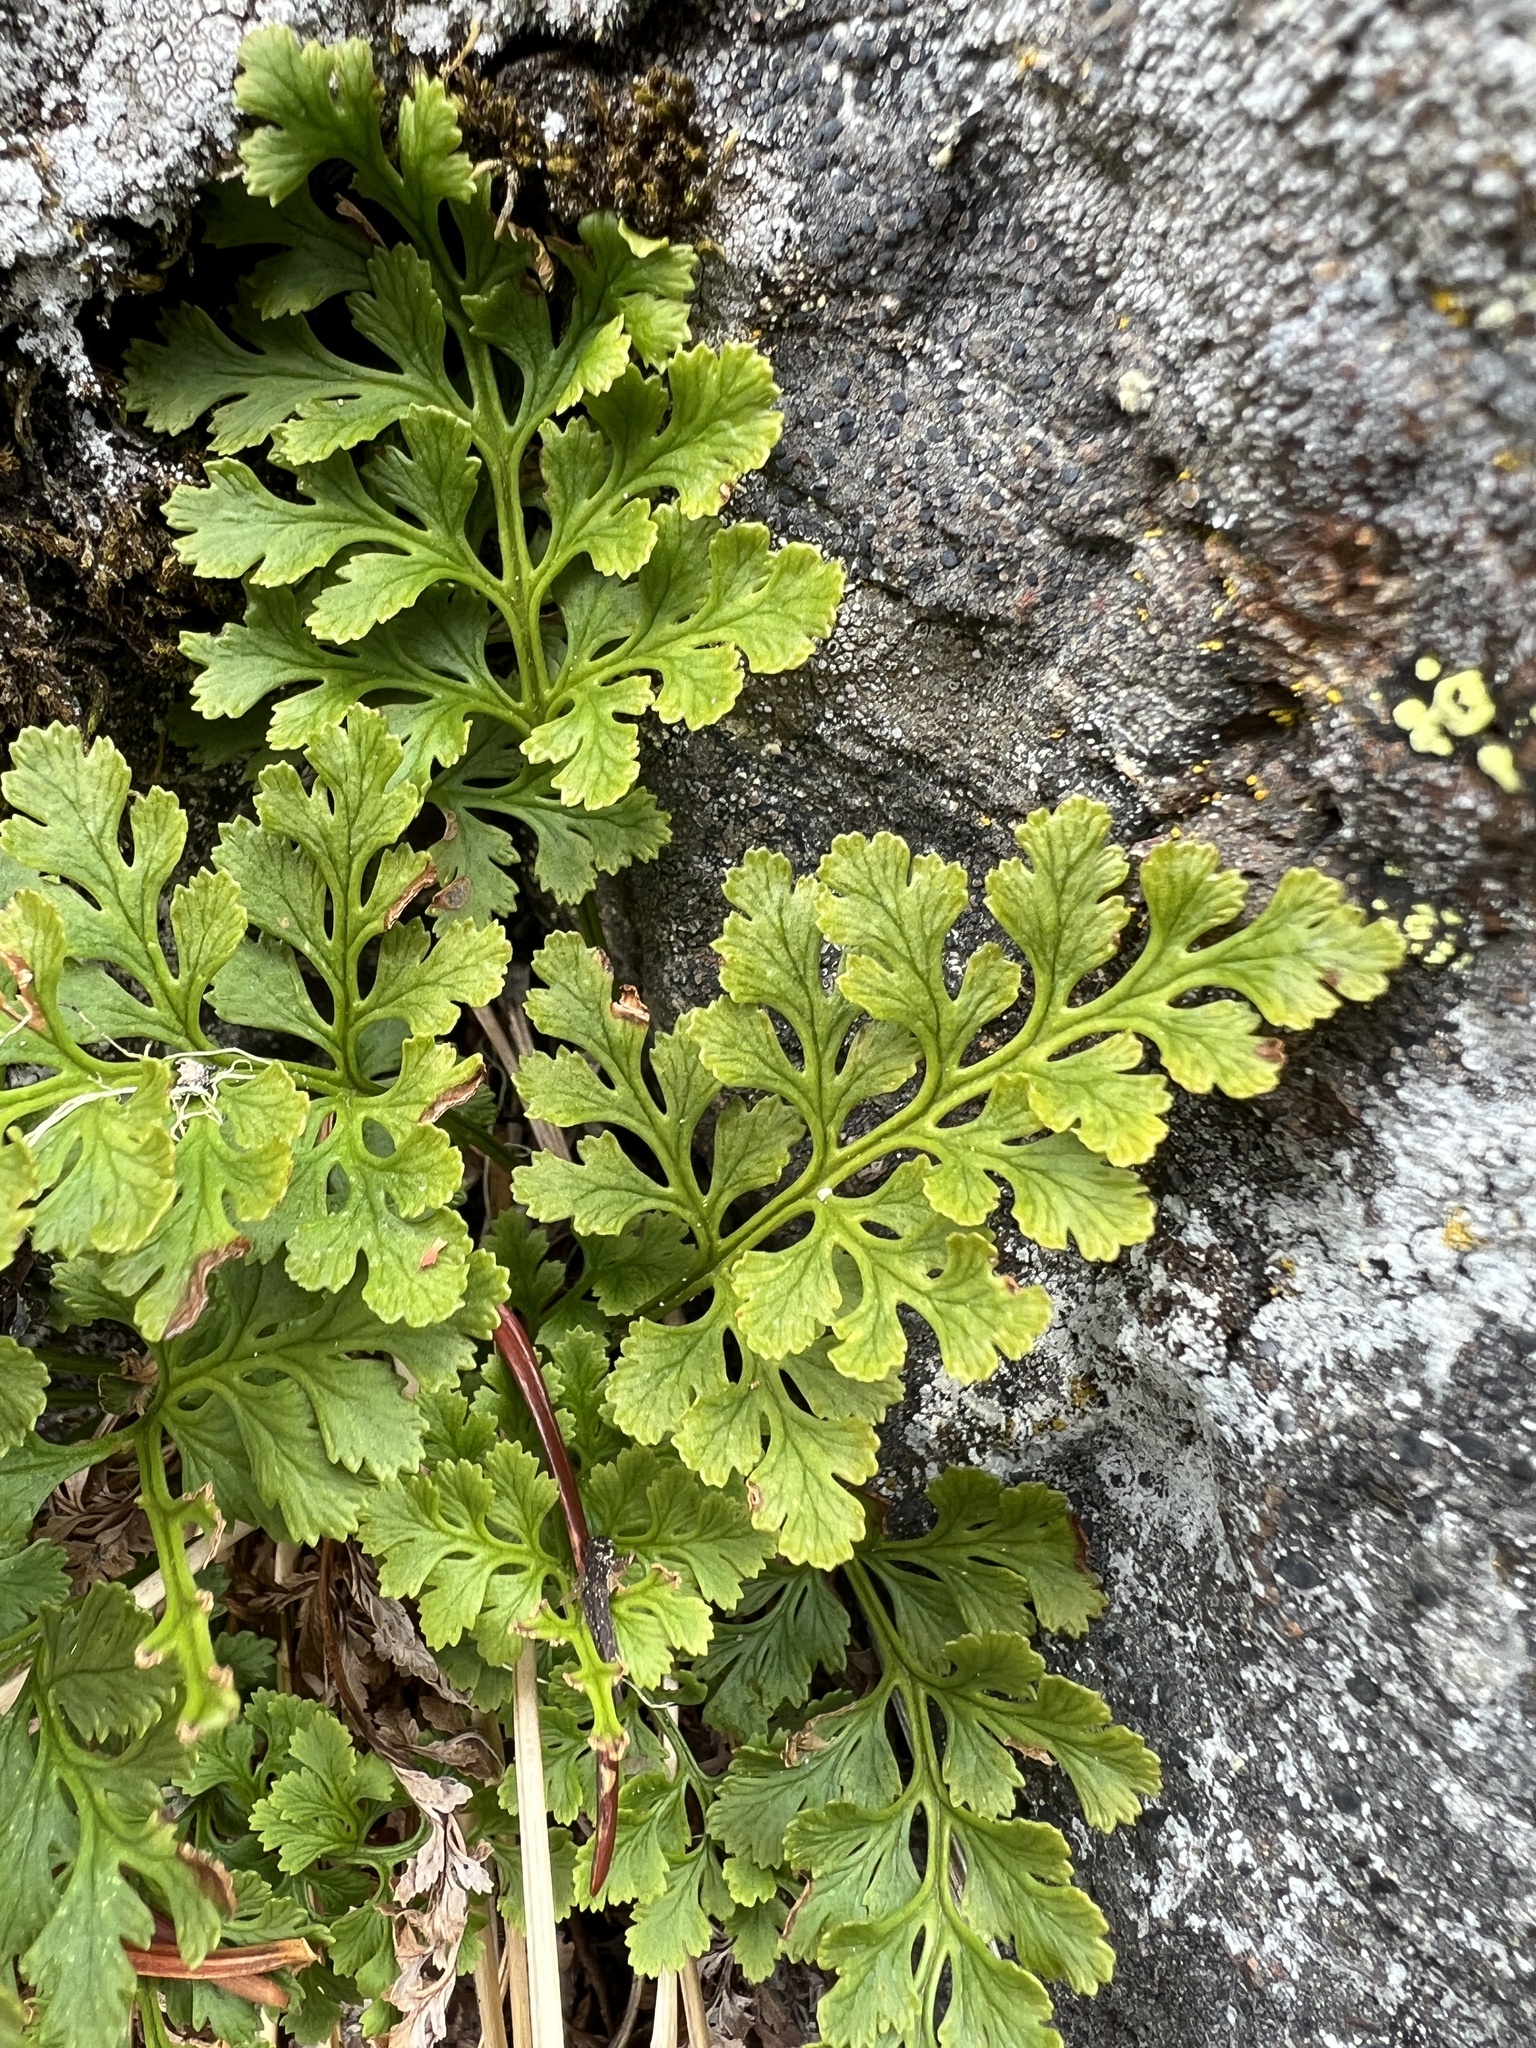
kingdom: Plantae
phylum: Tracheophyta
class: Polypodiopsida
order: Polypodiales
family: Pteridaceae
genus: Cryptogramma
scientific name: Cryptogramma acrostichoides
